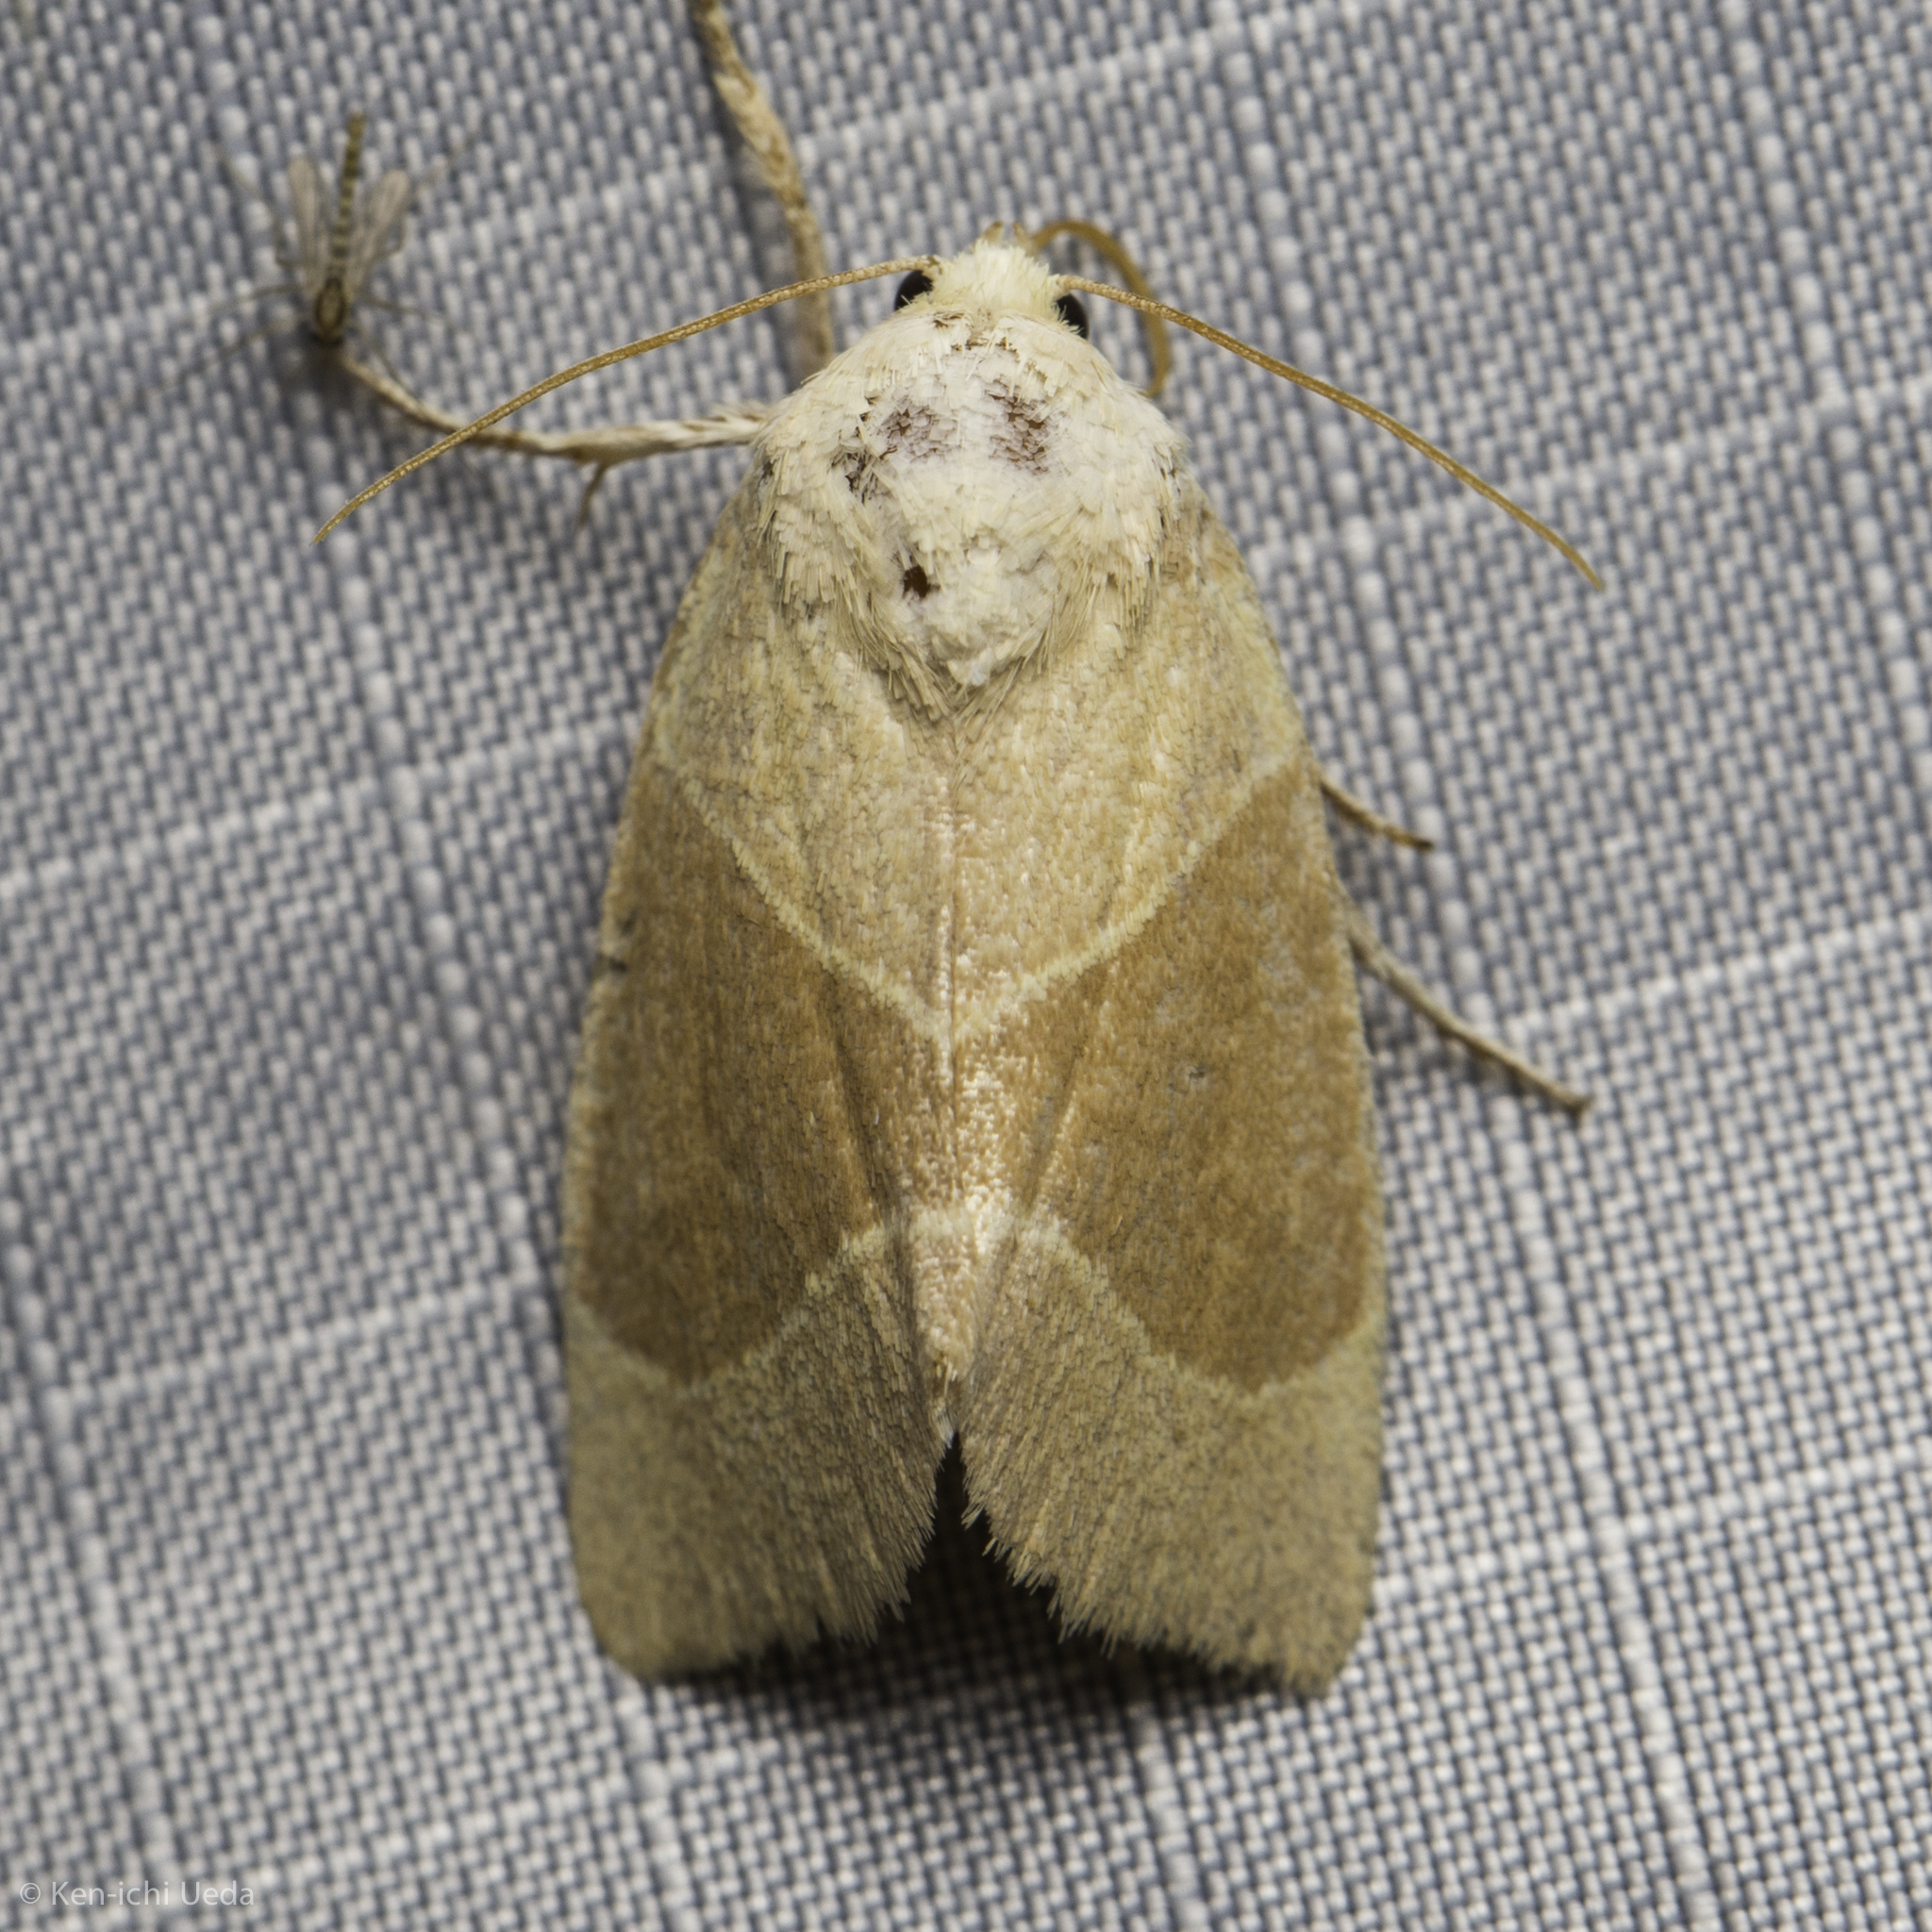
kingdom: Animalia
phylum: Arthropoda
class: Insecta
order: Lepidoptera
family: Noctuidae
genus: Cosmia
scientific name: Cosmia calami
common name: American dun-bar moth
